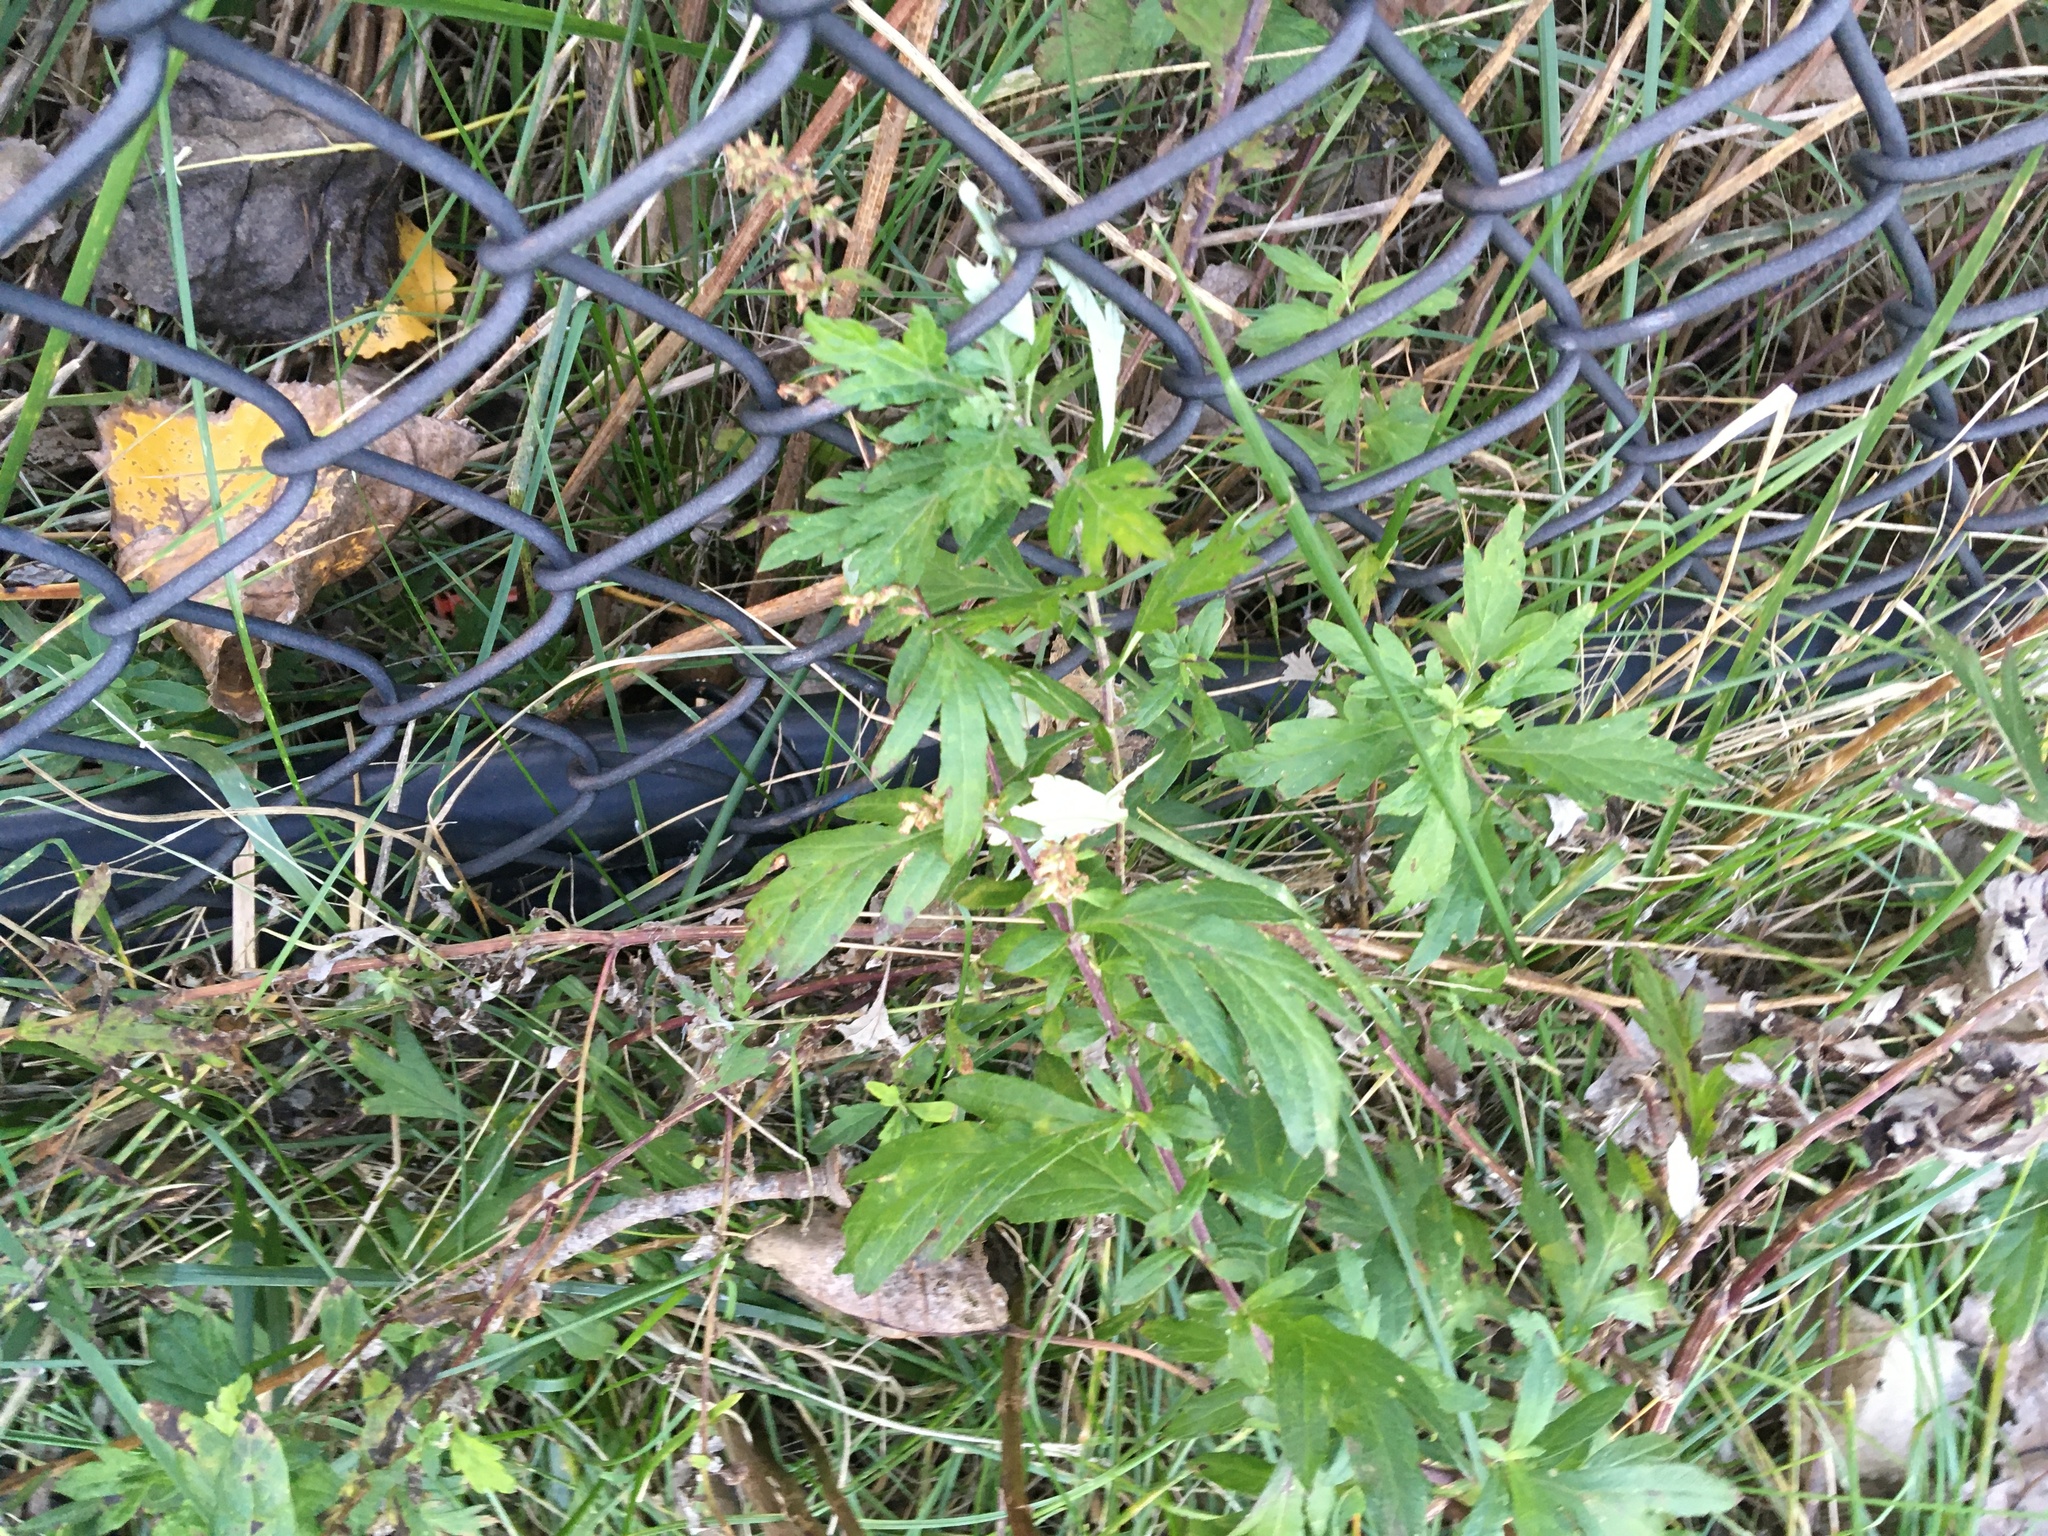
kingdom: Plantae
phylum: Tracheophyta
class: Magnoliopsida
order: Asterales
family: Asteraceae
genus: Artemisia
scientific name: Artemisia vulgaris
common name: Mugwort
